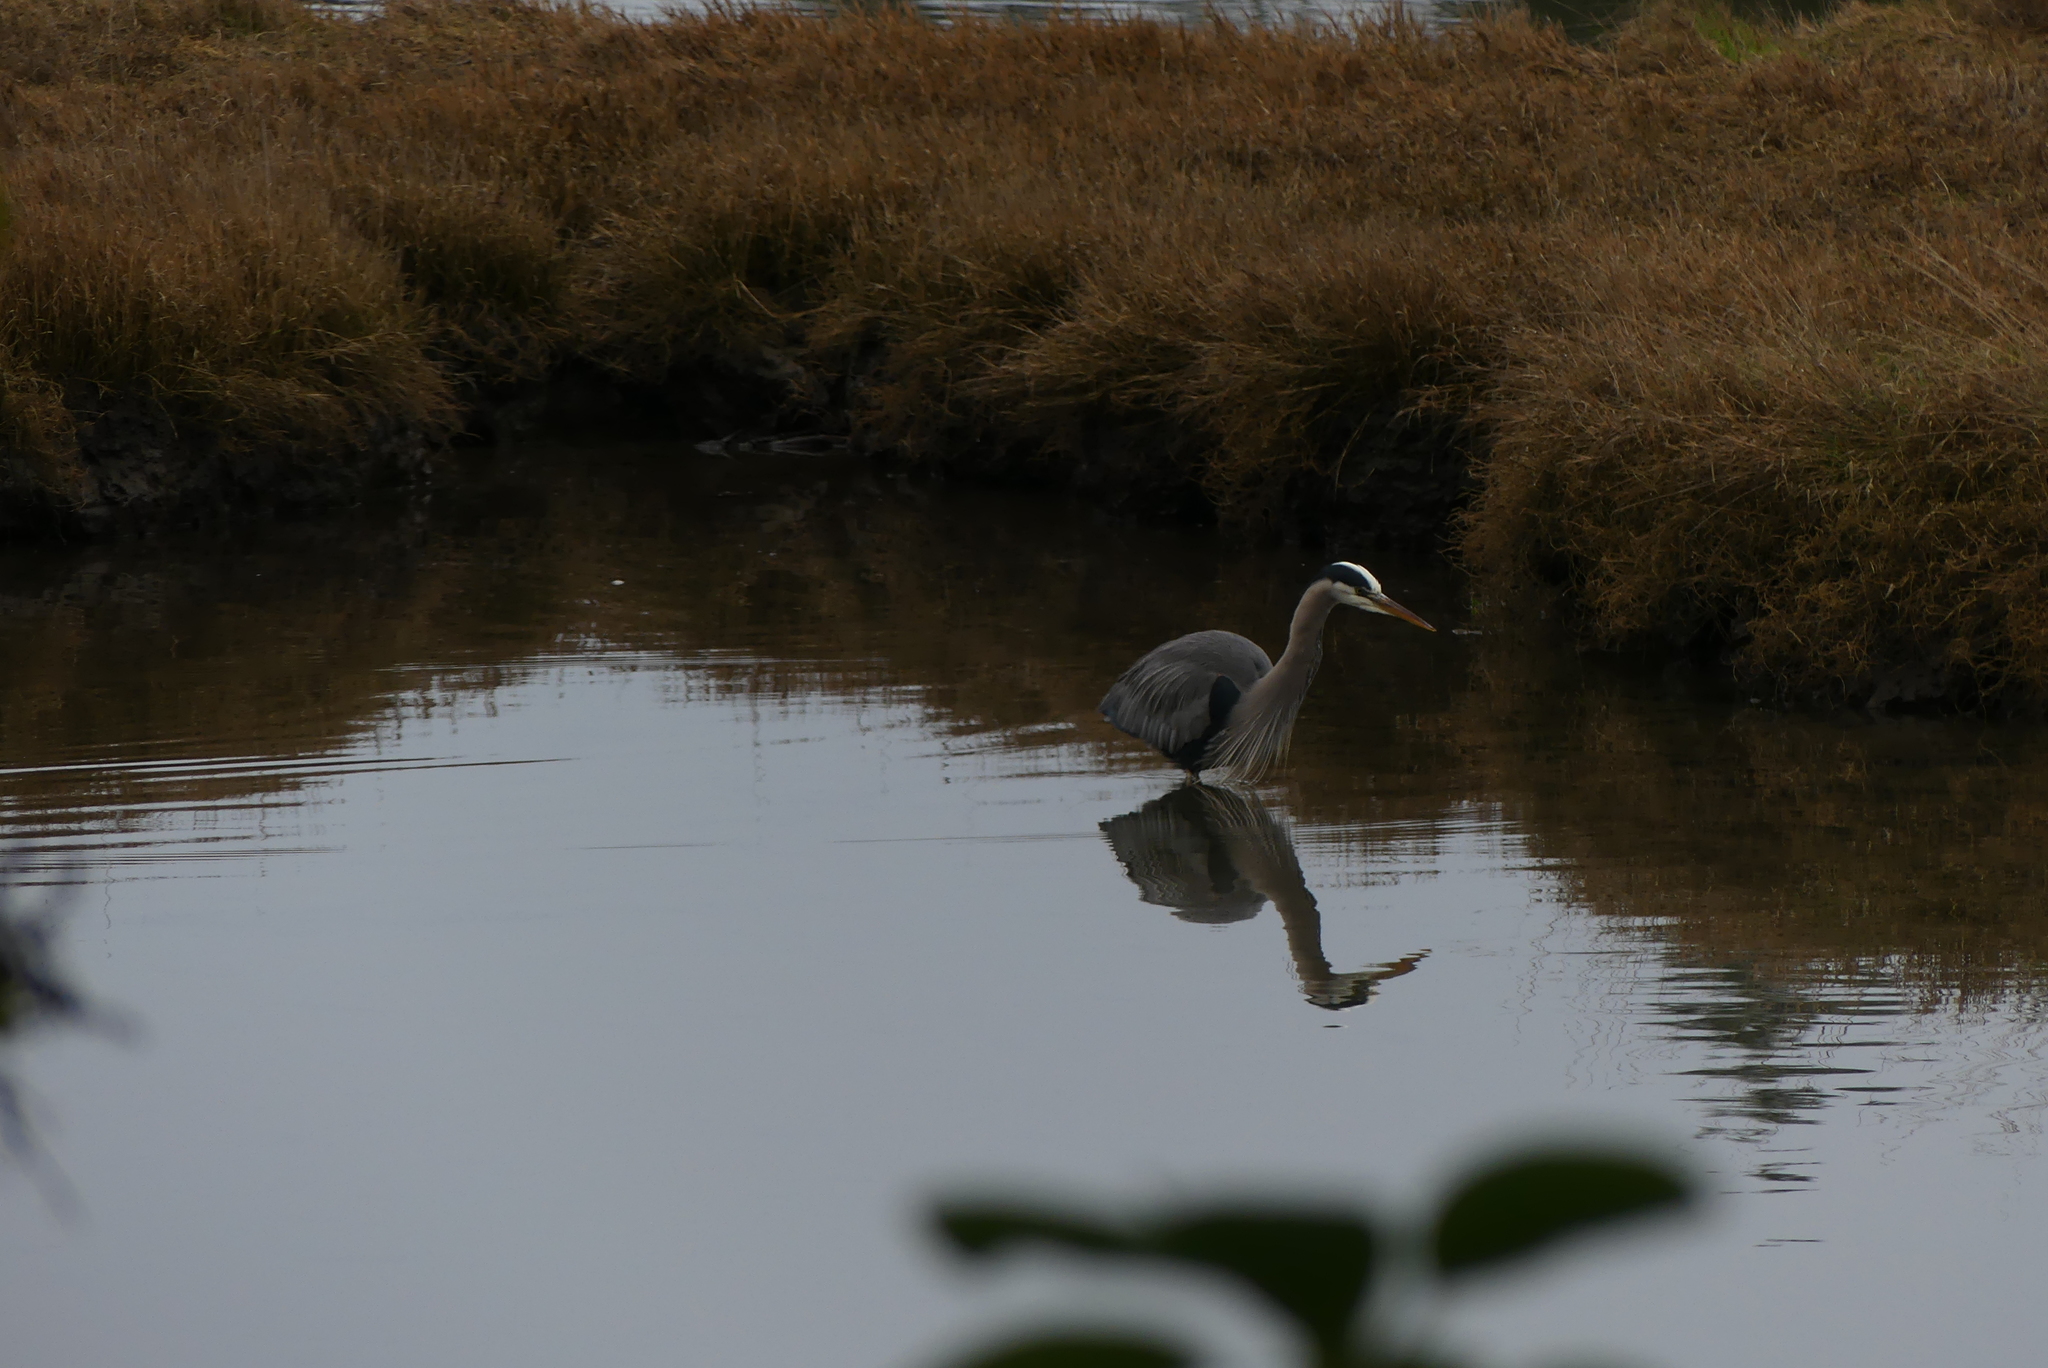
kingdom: Animalia
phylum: Chordata
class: Aves
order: Pelecaniformes
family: Ardeidae
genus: Ardea
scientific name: Ardea herodias
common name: Great blue heron
